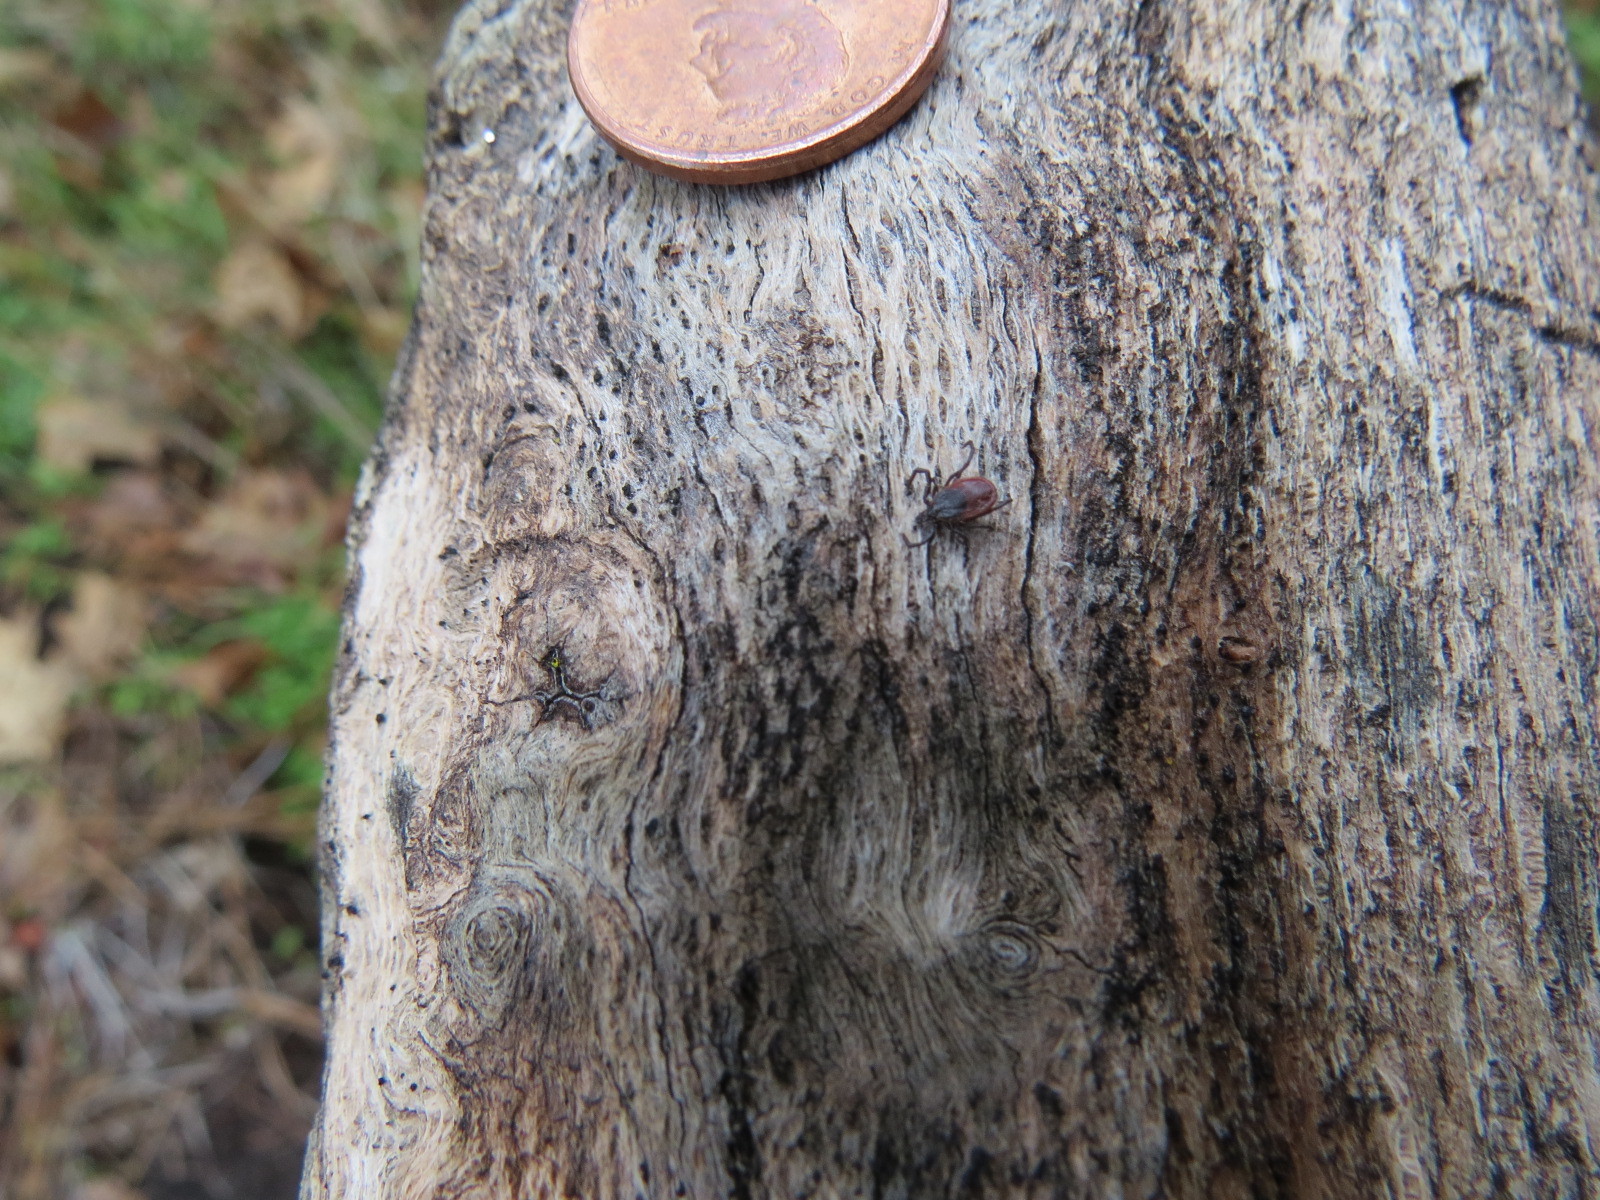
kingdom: Animalia
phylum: Arthropoda
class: Arachnida
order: Ixodida
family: Ixodidae
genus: Ixodes
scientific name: Ixodes pacificus
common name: California black-legged tick
